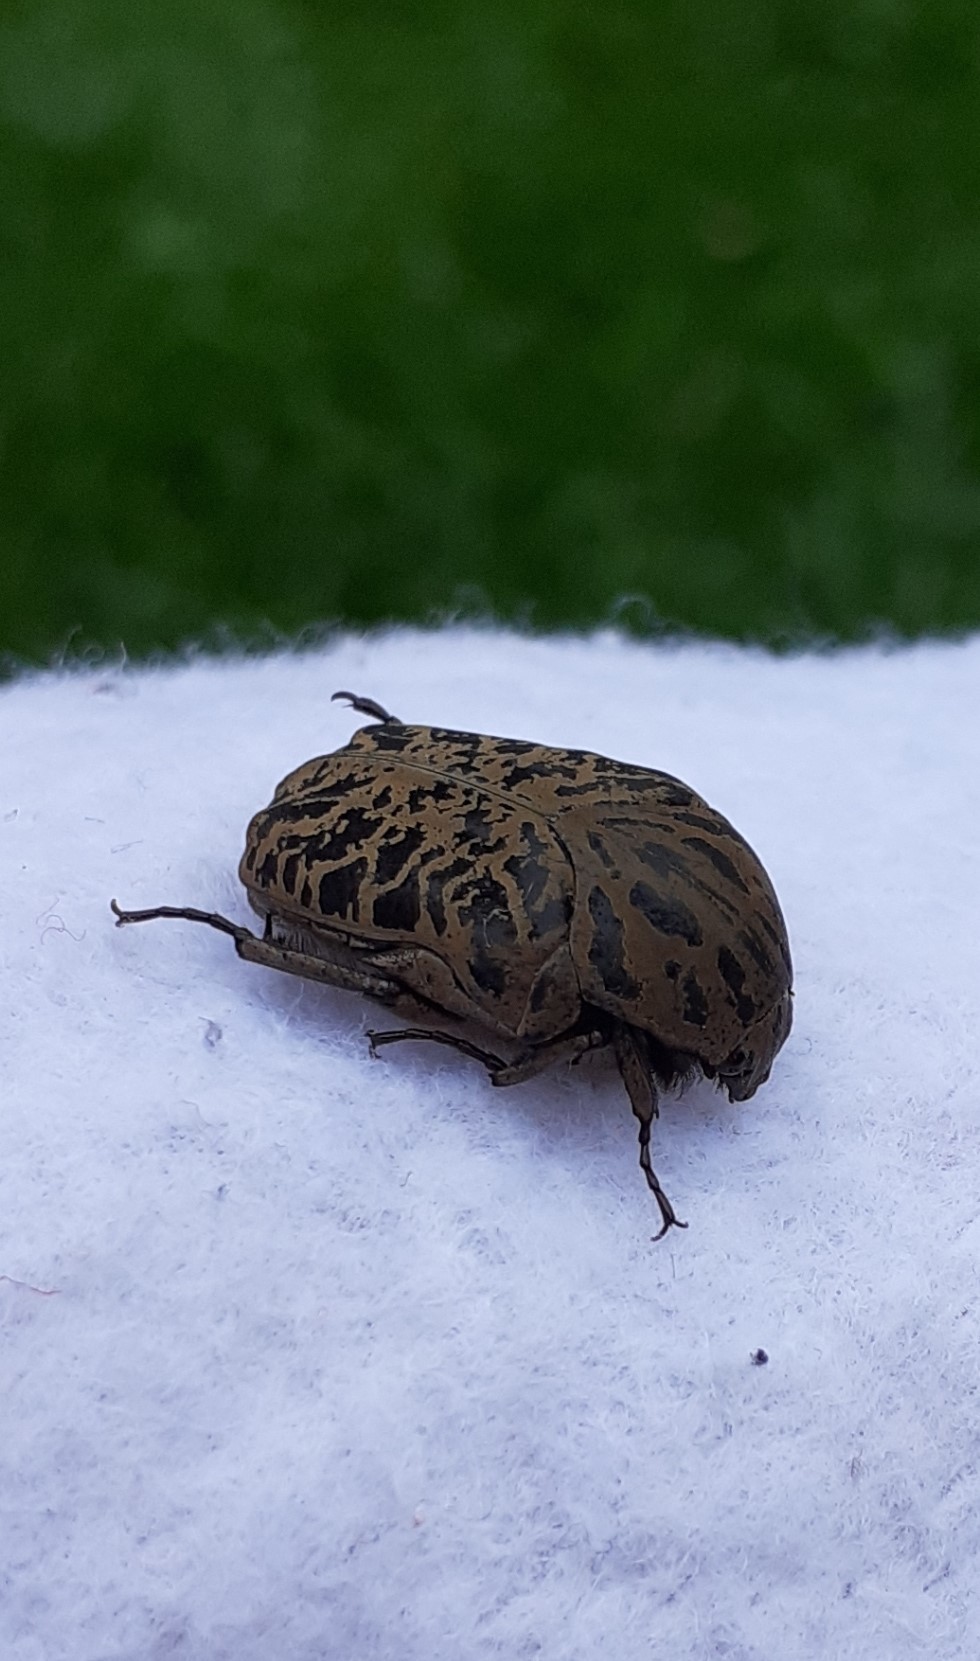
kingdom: Animalia
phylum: Arthropoda
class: Insecta
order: Coleoptera
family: Scarabaeidae
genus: Gymnetis
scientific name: Gymnetis strigosa
